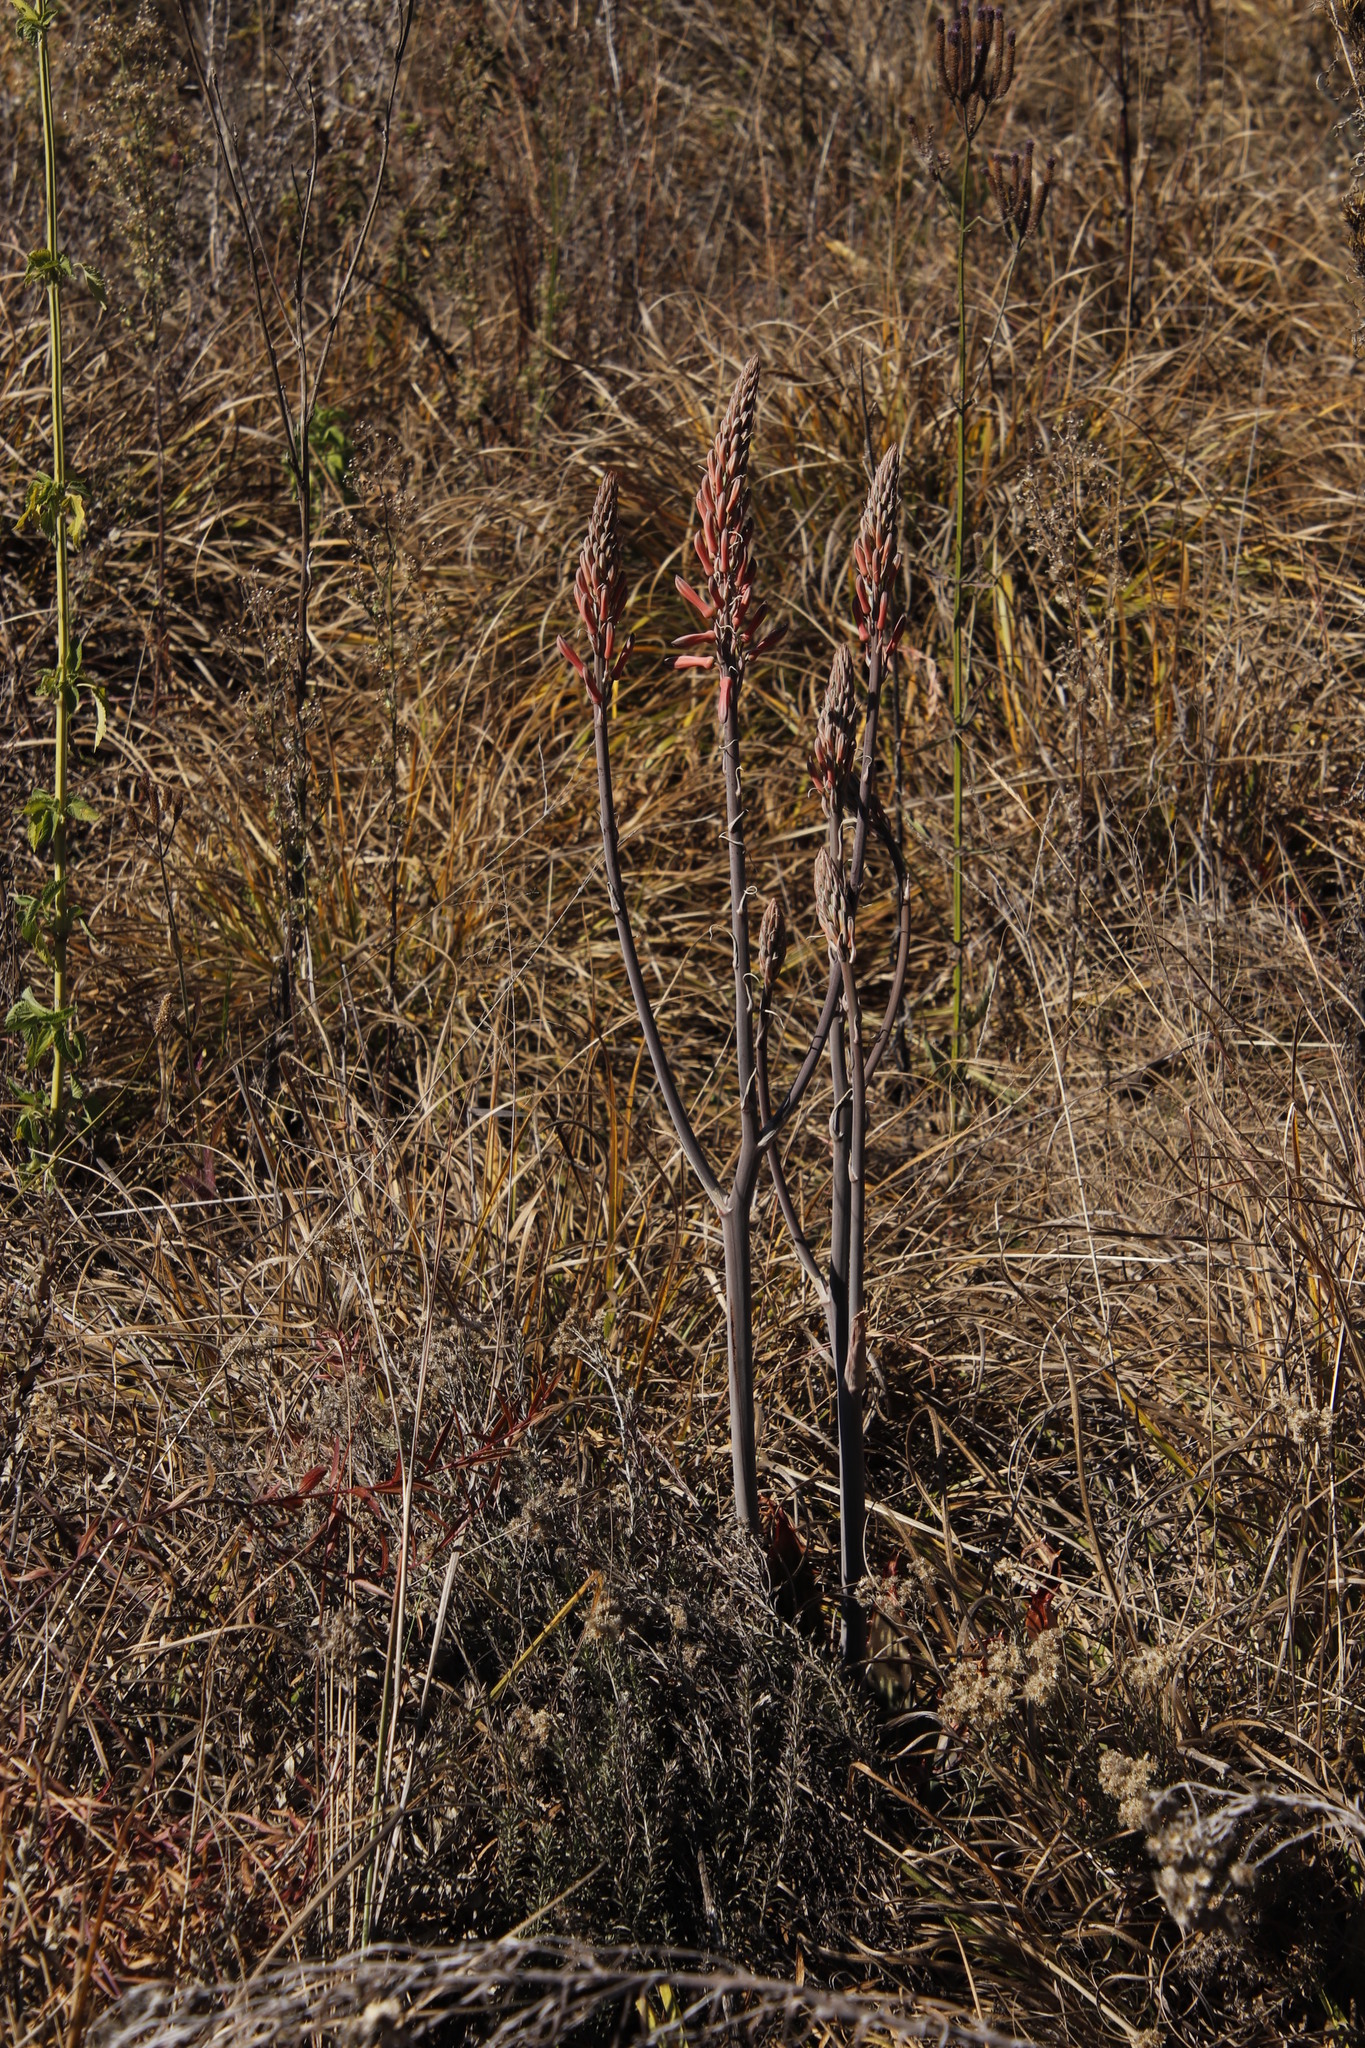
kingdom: Plantae
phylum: Tracheophyta
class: Liliopsida
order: Asparagales
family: Asphodelaceae
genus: Aloe
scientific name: Aloe davyana
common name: Spotted aloe
